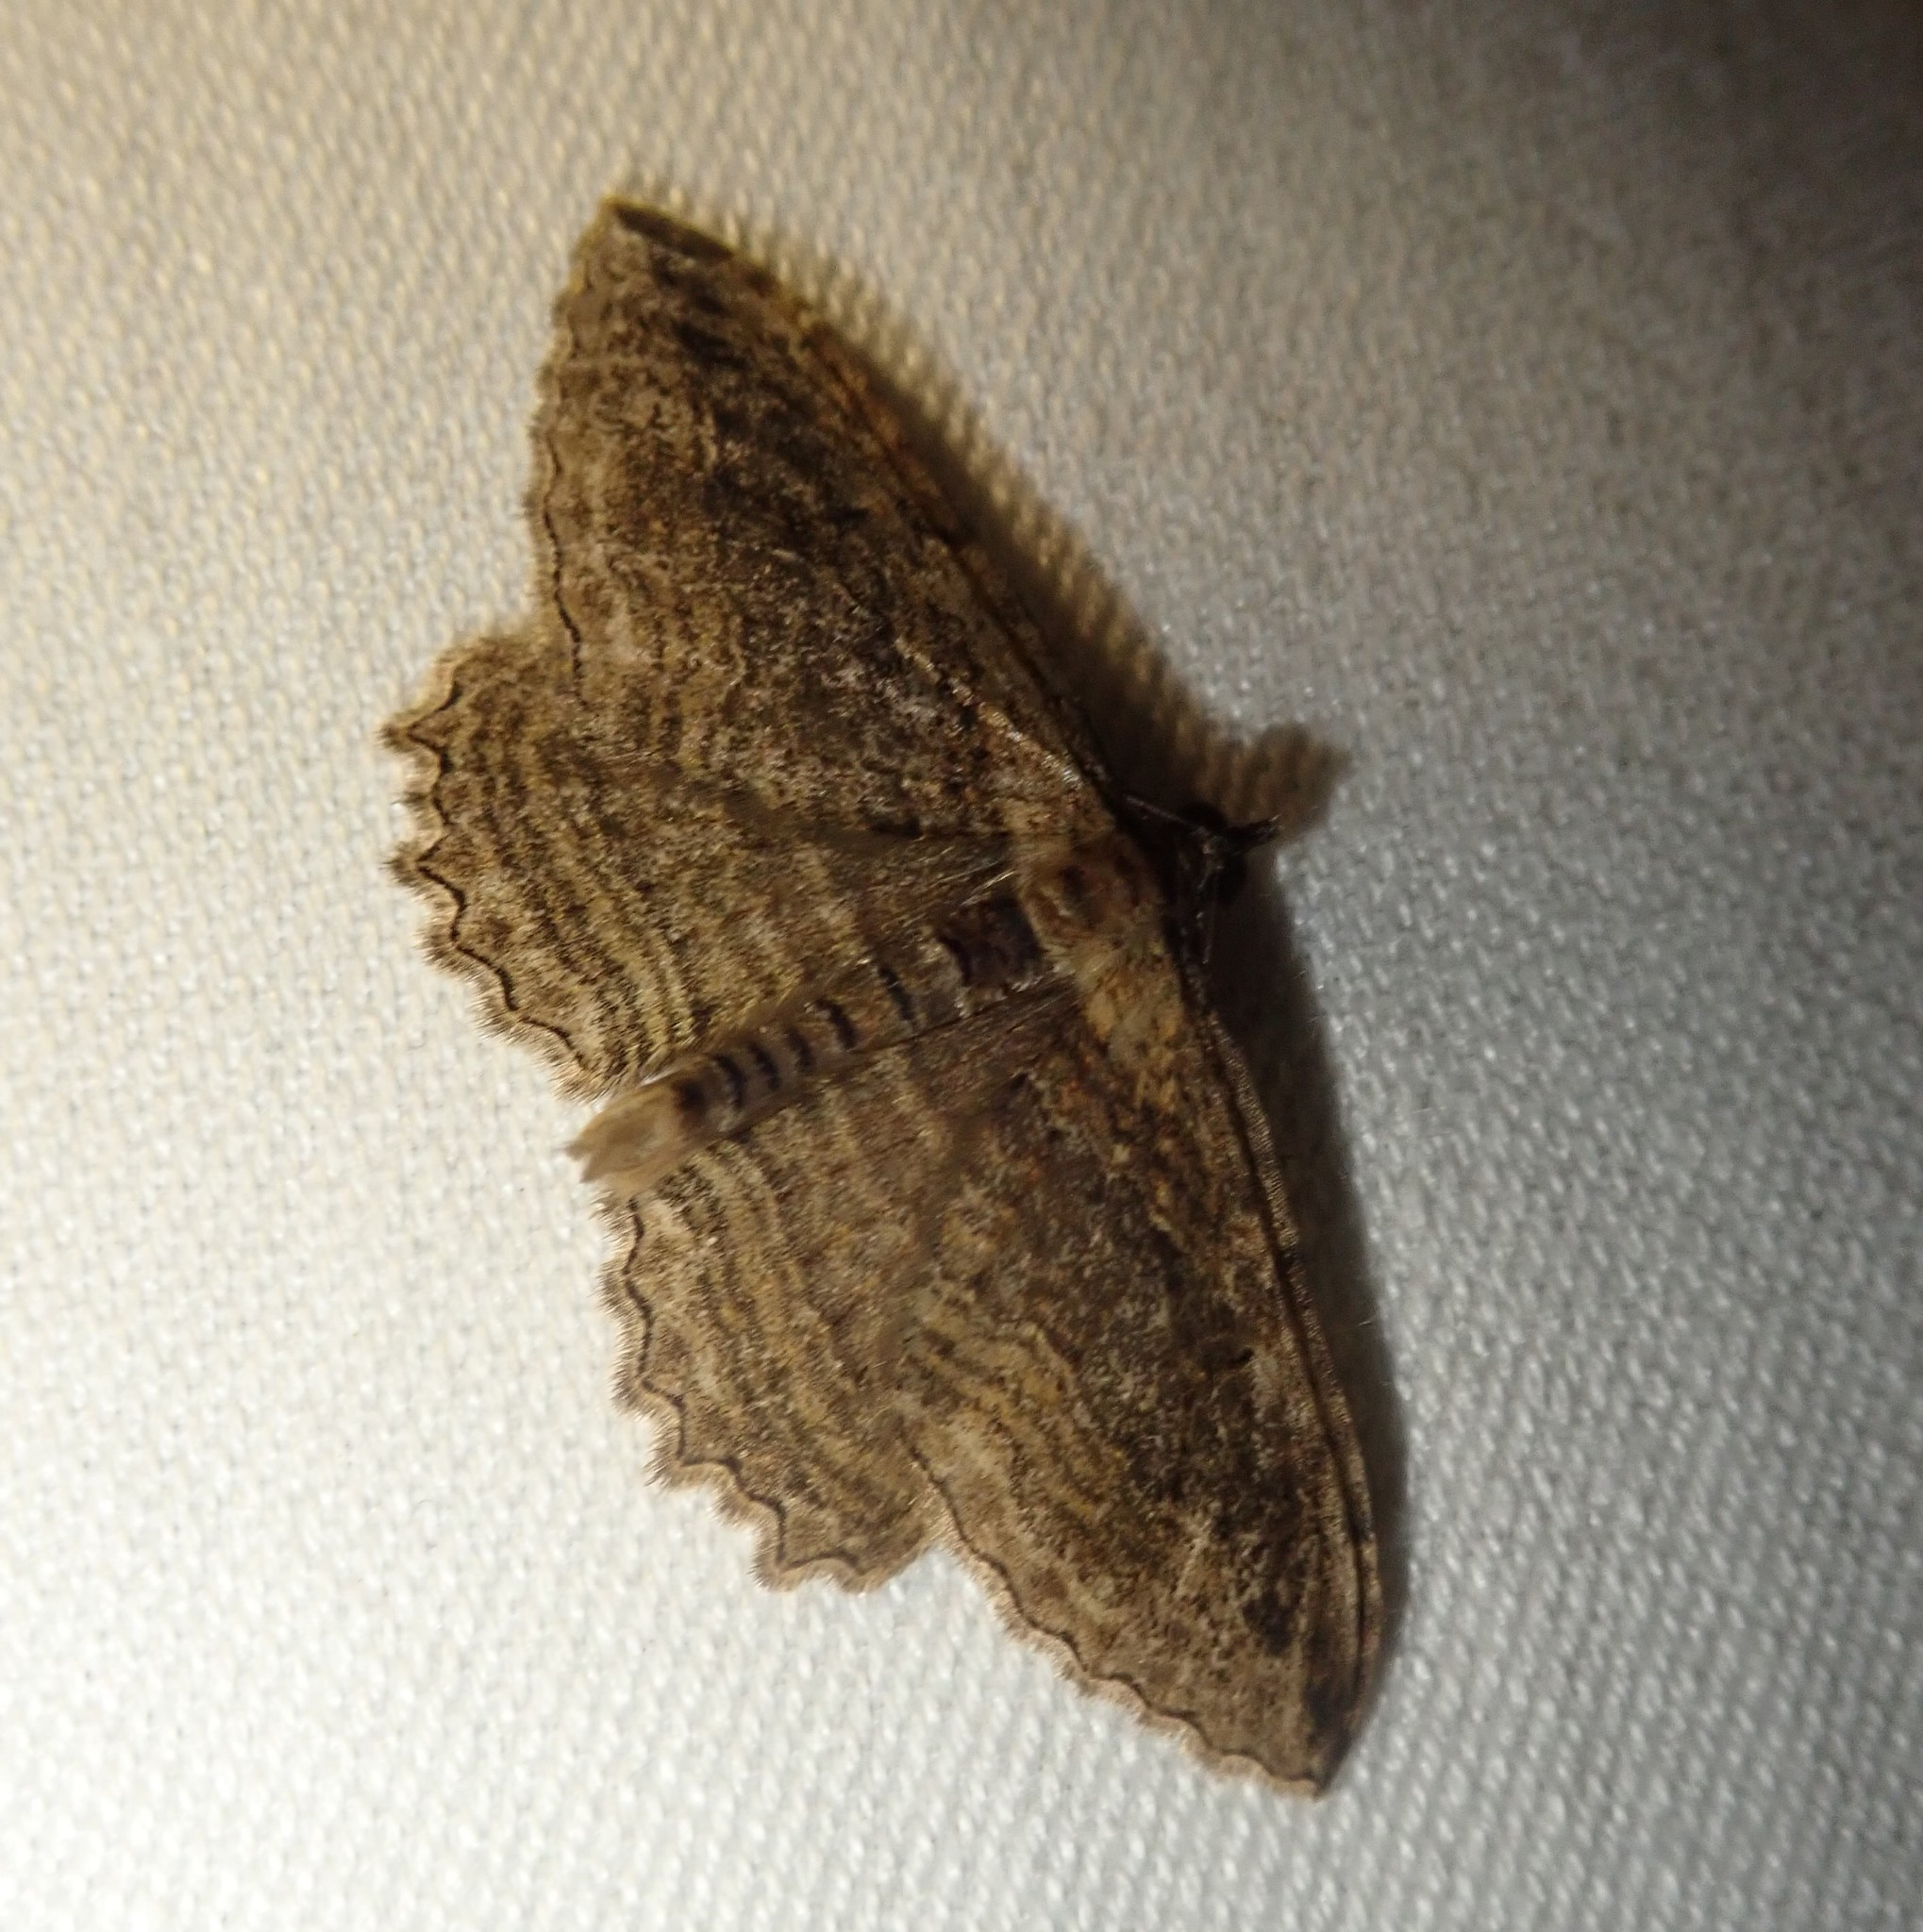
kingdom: Animalia
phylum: Arthropoda
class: Insecta
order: Lepidoptera
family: Geometridae
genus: Philereme
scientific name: Philereme transversata
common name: Dark umber
